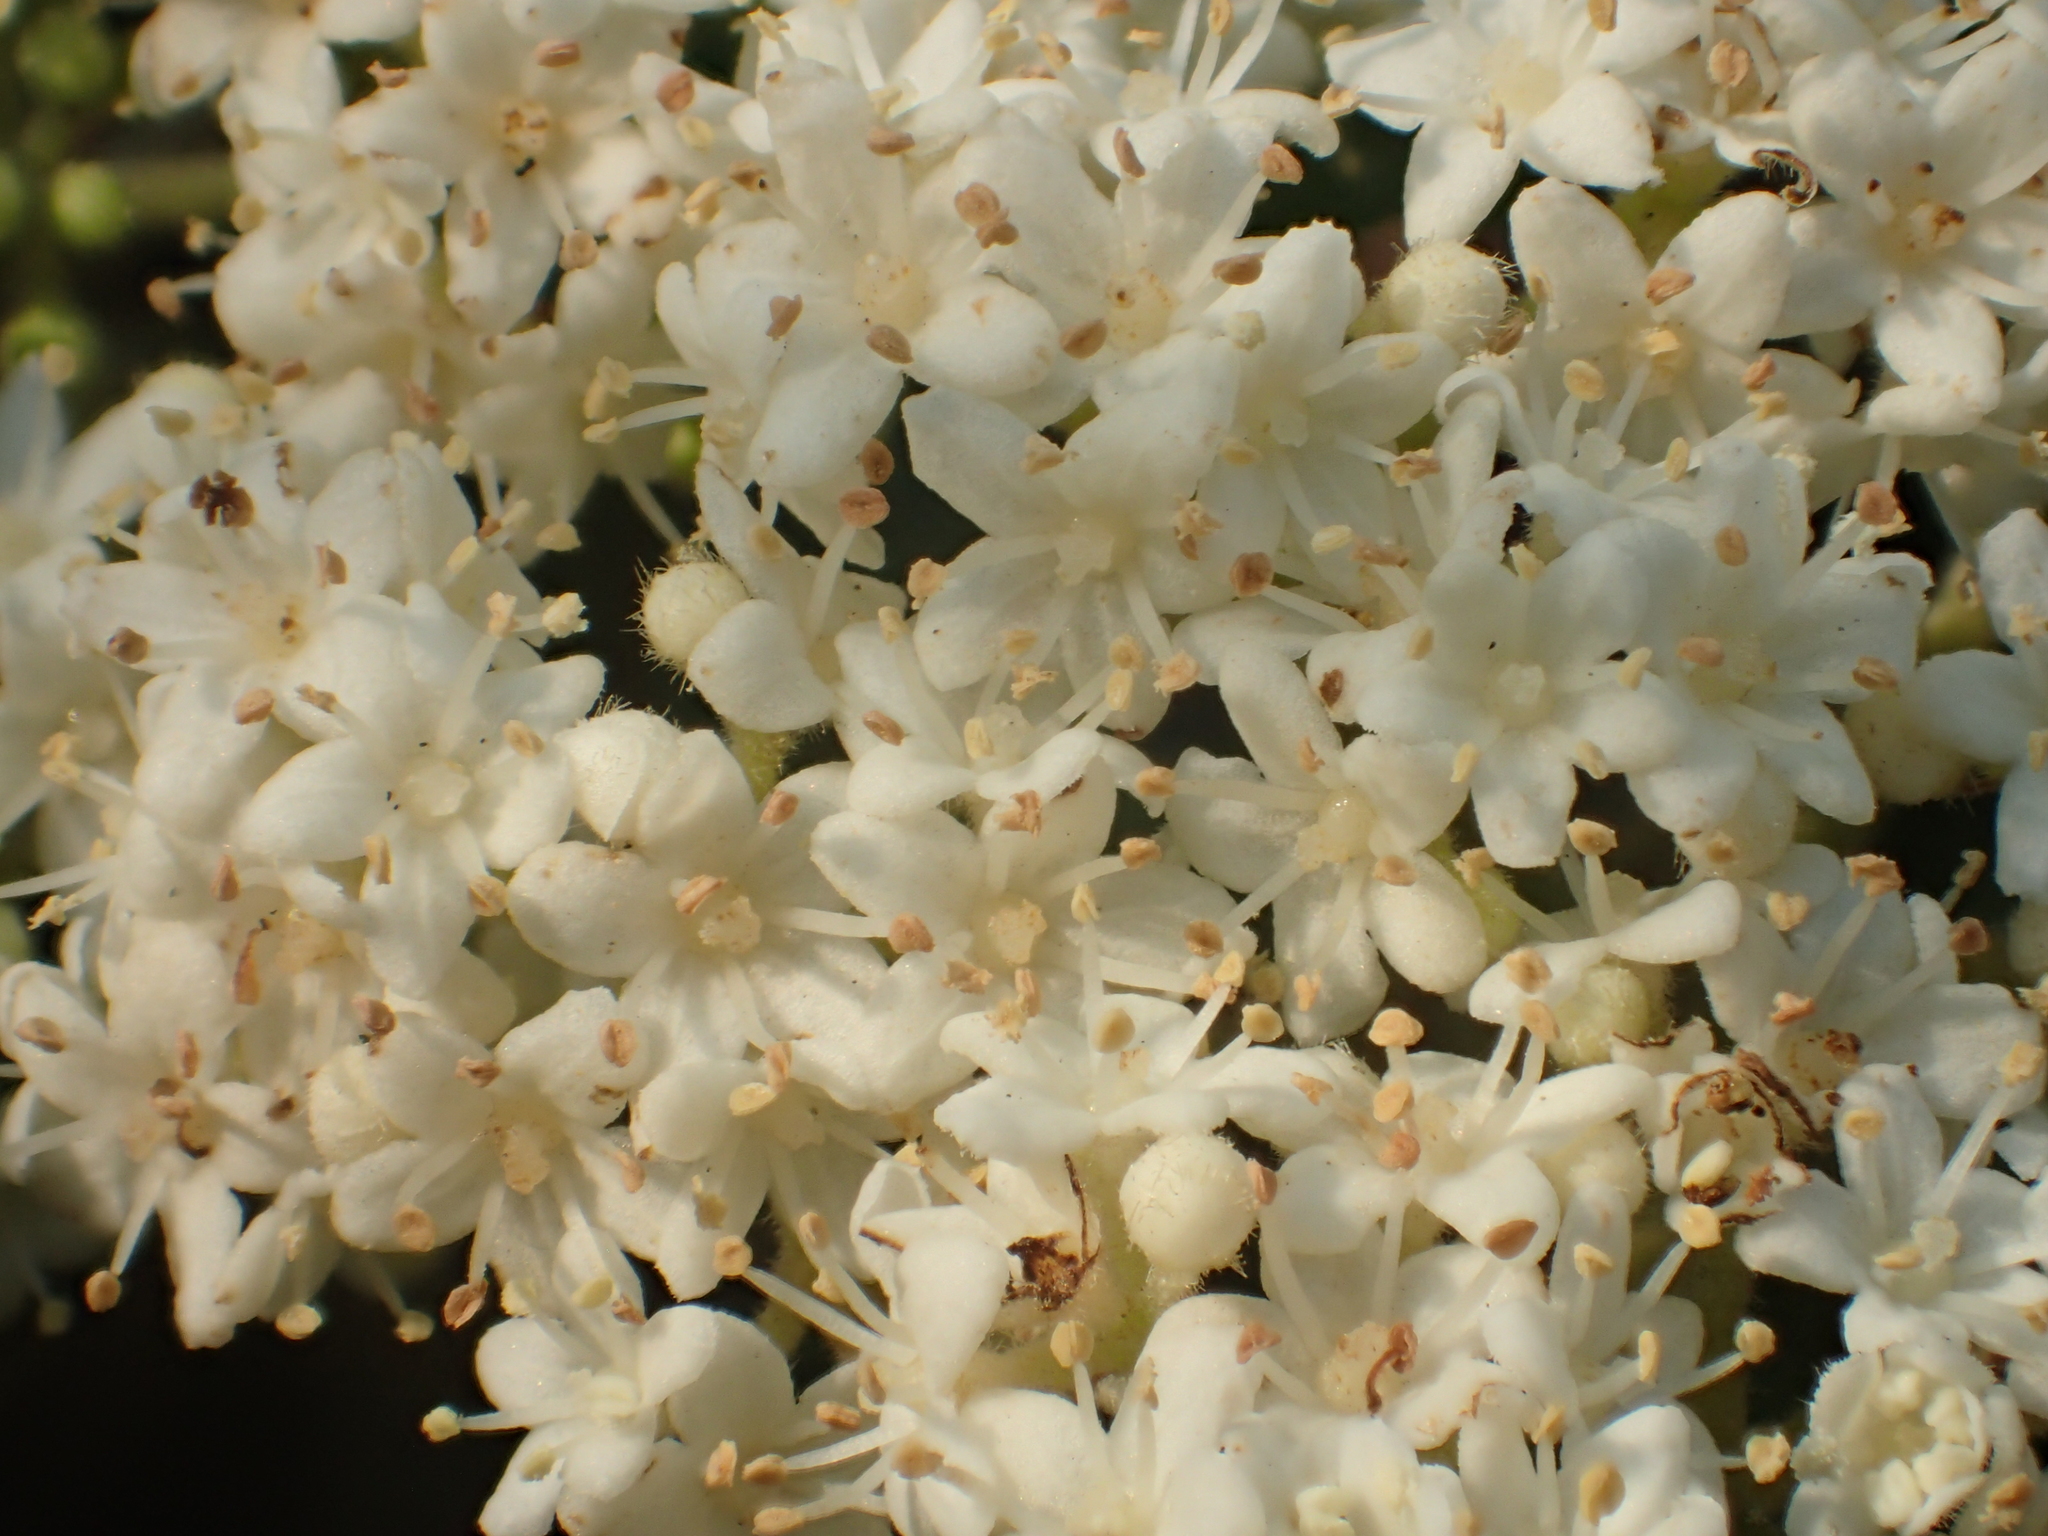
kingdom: Plantae
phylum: Tracheophyta
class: Magnoliopsida
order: Dipsacales
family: Viburnaceae
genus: Viburnum
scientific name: Viburnum luzonicum
